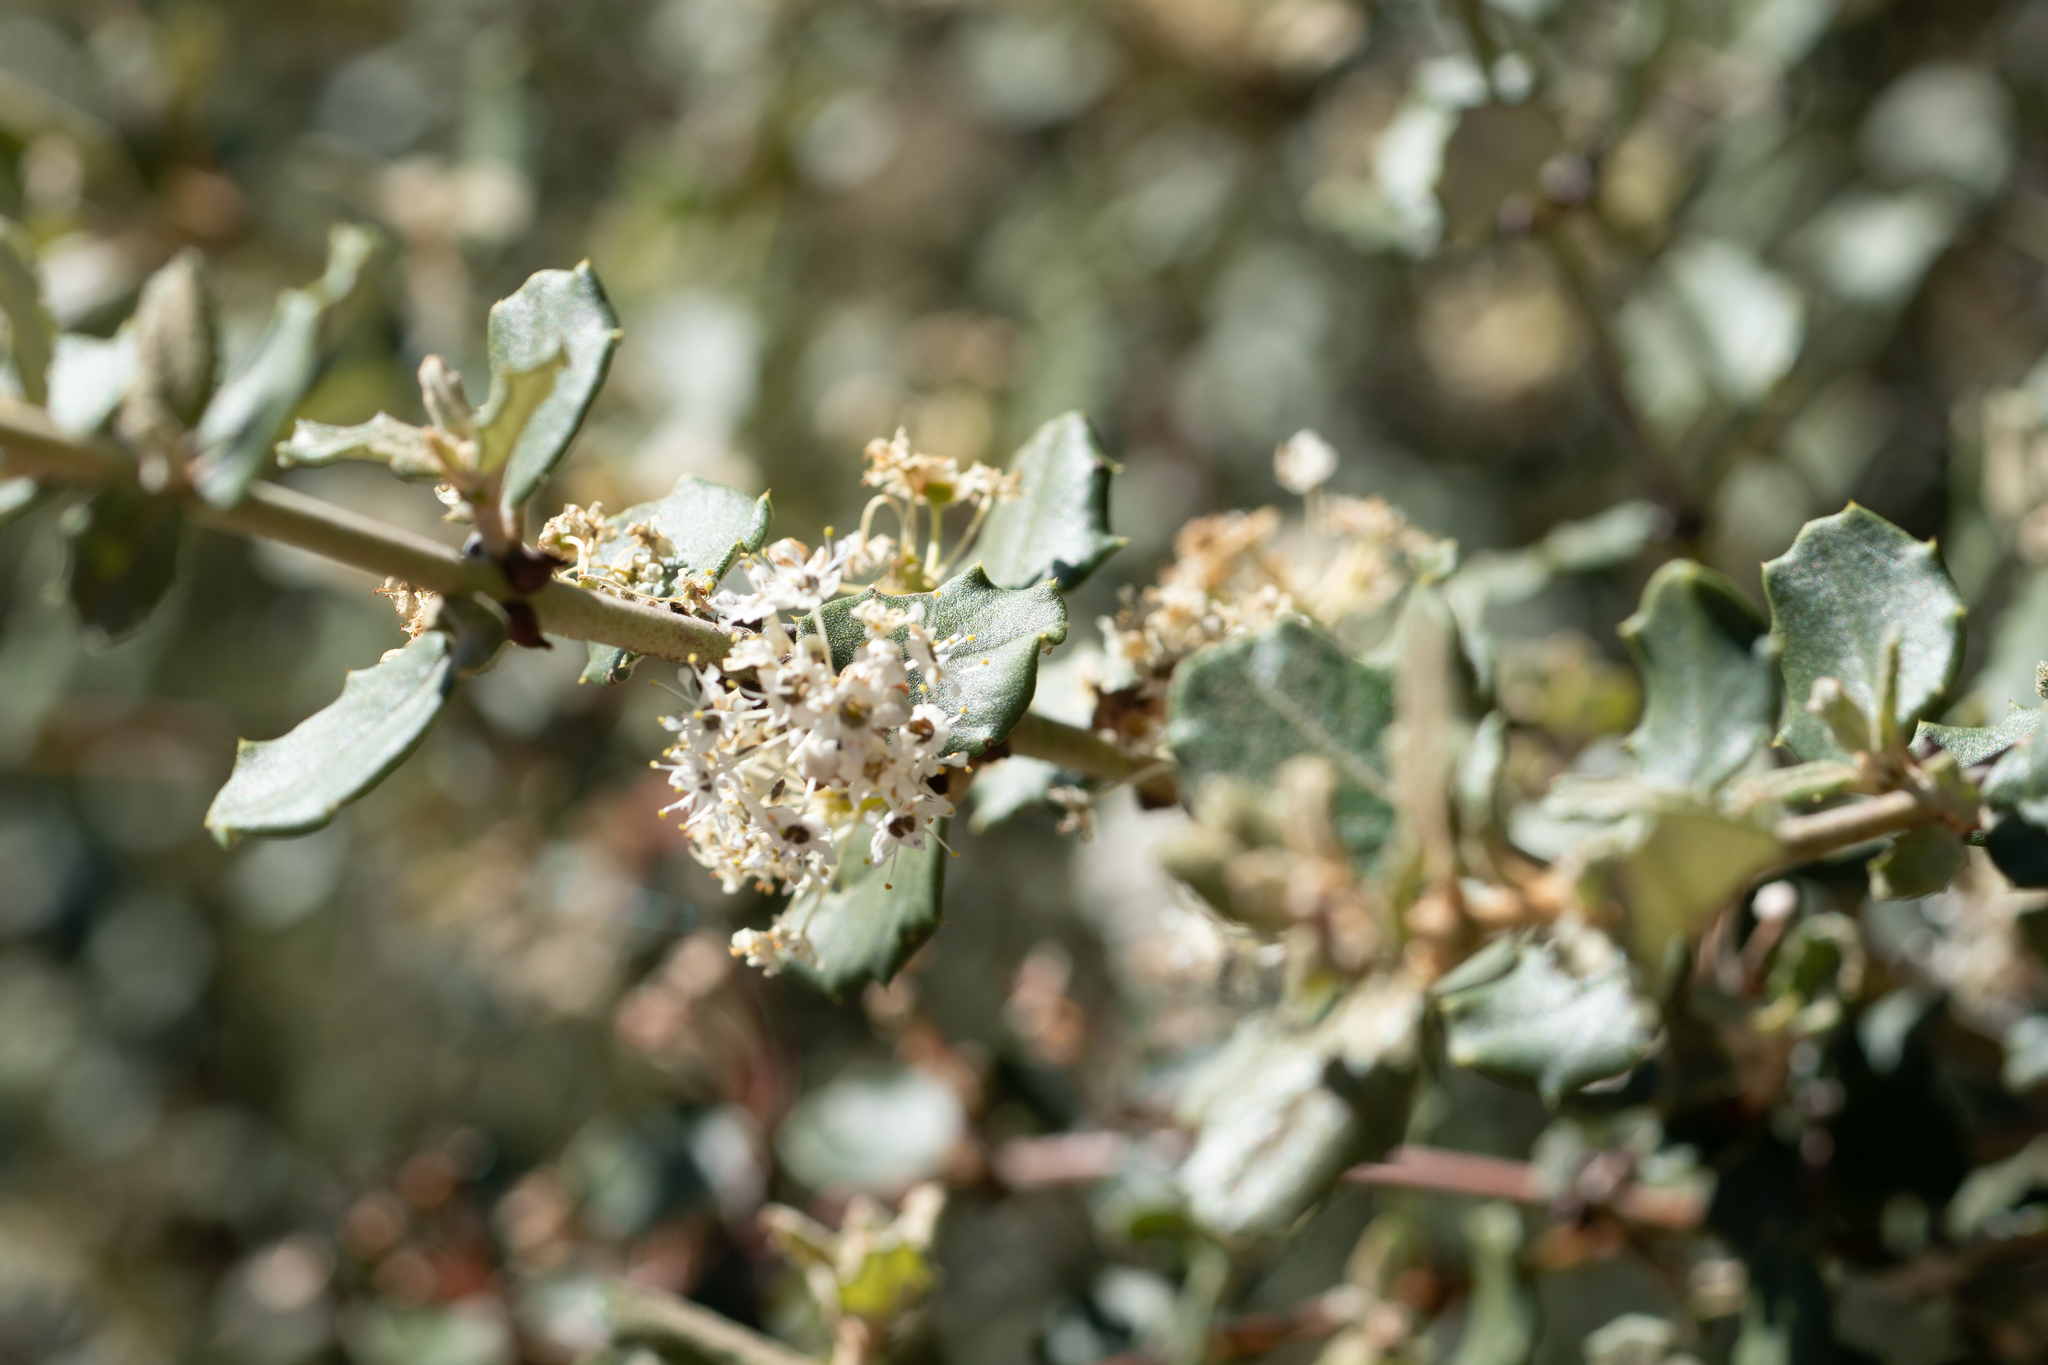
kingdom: Plantae
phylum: Tracheophyta
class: Magnoliopsida
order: Rosales
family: Rhamnaceae
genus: Ceanothus
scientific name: Ceanothus crassifolius
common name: Hoaryleaf ceanothus
